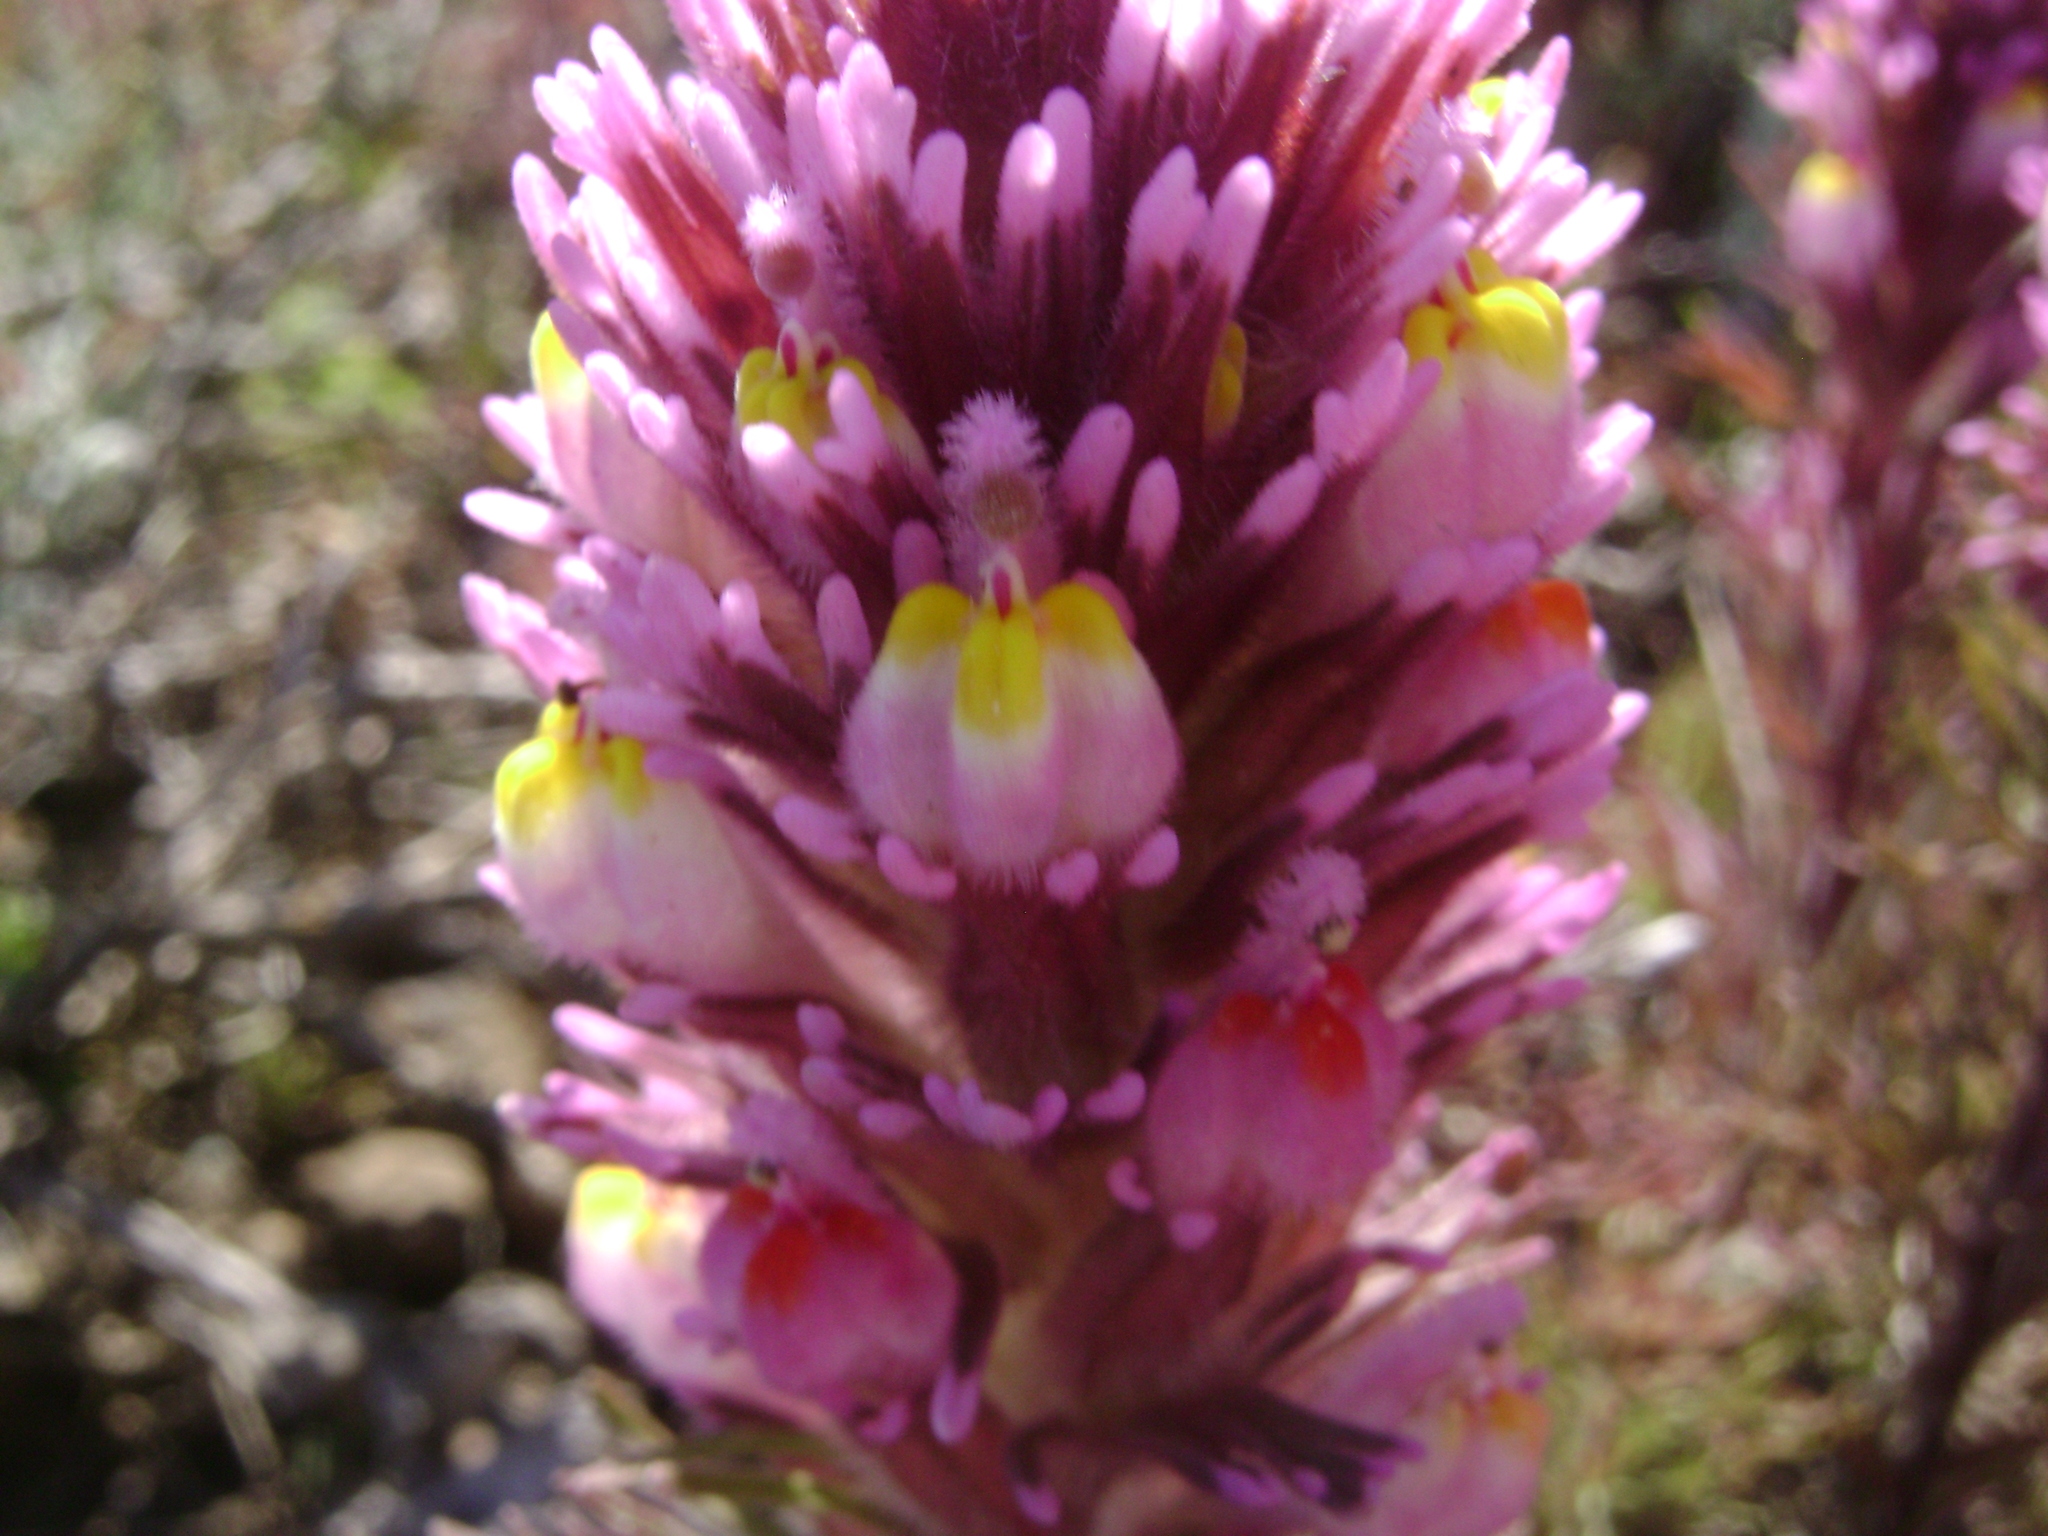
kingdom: Plantae
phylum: Tracheophyta
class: Magnoliopsida
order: Lamiales
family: Orobanchaceae
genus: Castilleja
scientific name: Castilleja exserta
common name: Purple owl-clover
